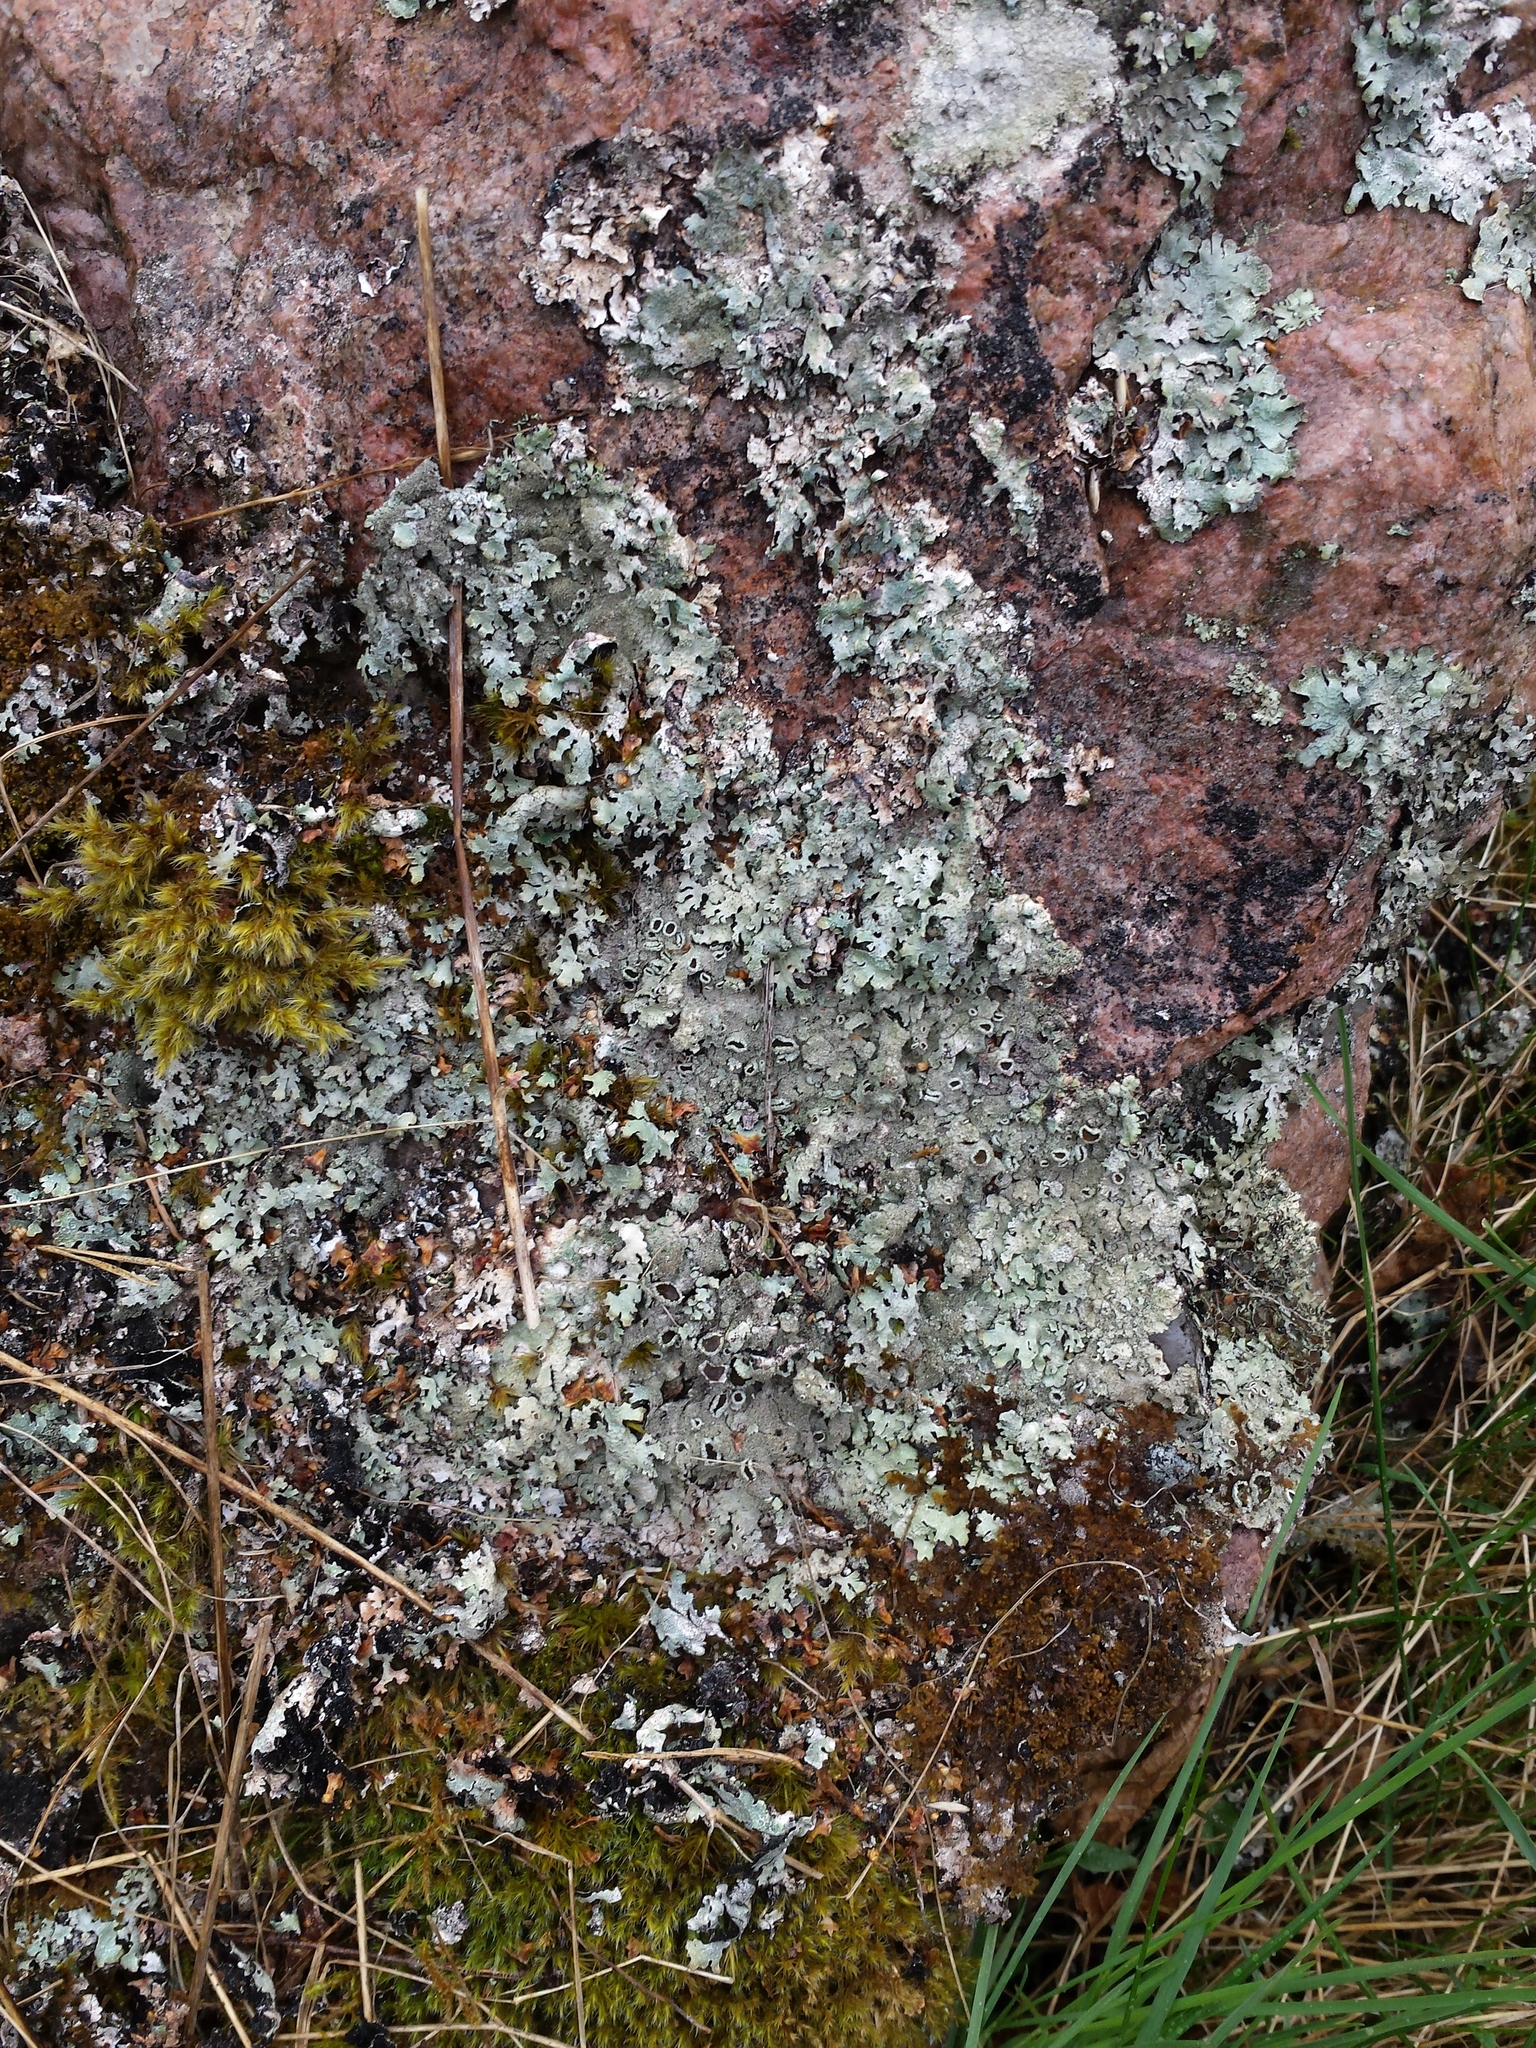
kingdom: Fungi
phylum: Ascomycota
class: Lecanoromycetes
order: Lecanorales
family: Parmeliaceae
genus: Parmelia
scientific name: Parmelia saxatilis
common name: Salted shield lichen
